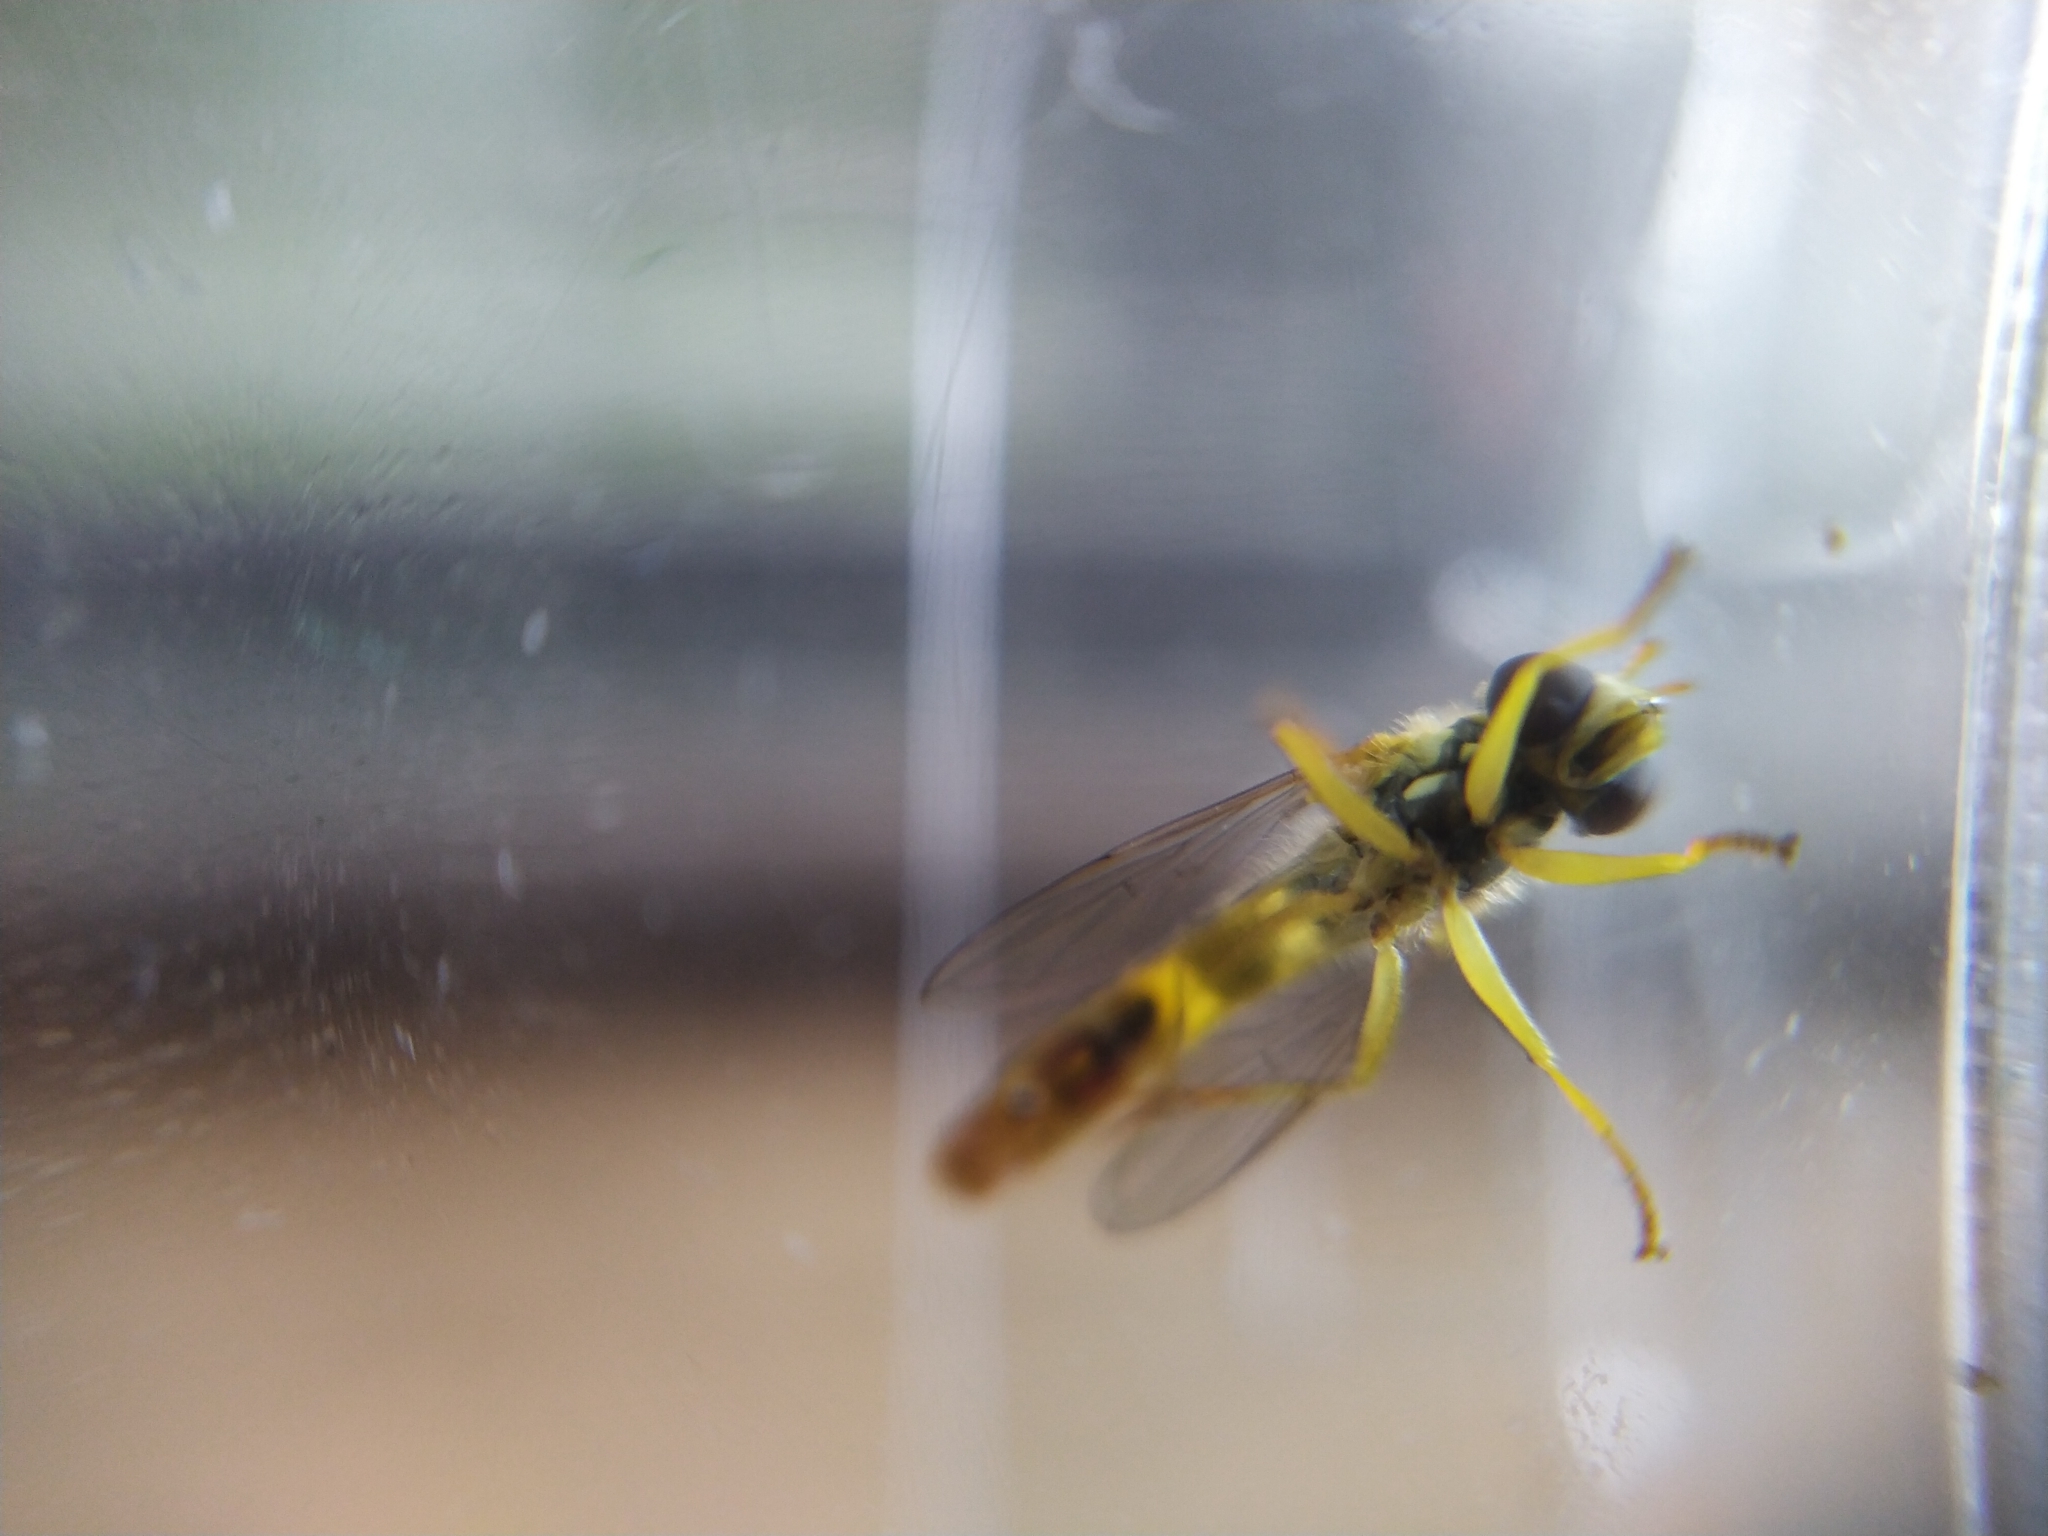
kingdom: Animalia
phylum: Arthropoda
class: Insecta
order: Diptera
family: Syrphidae
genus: Sphaerophoria
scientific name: Sphaerophoria scripta
